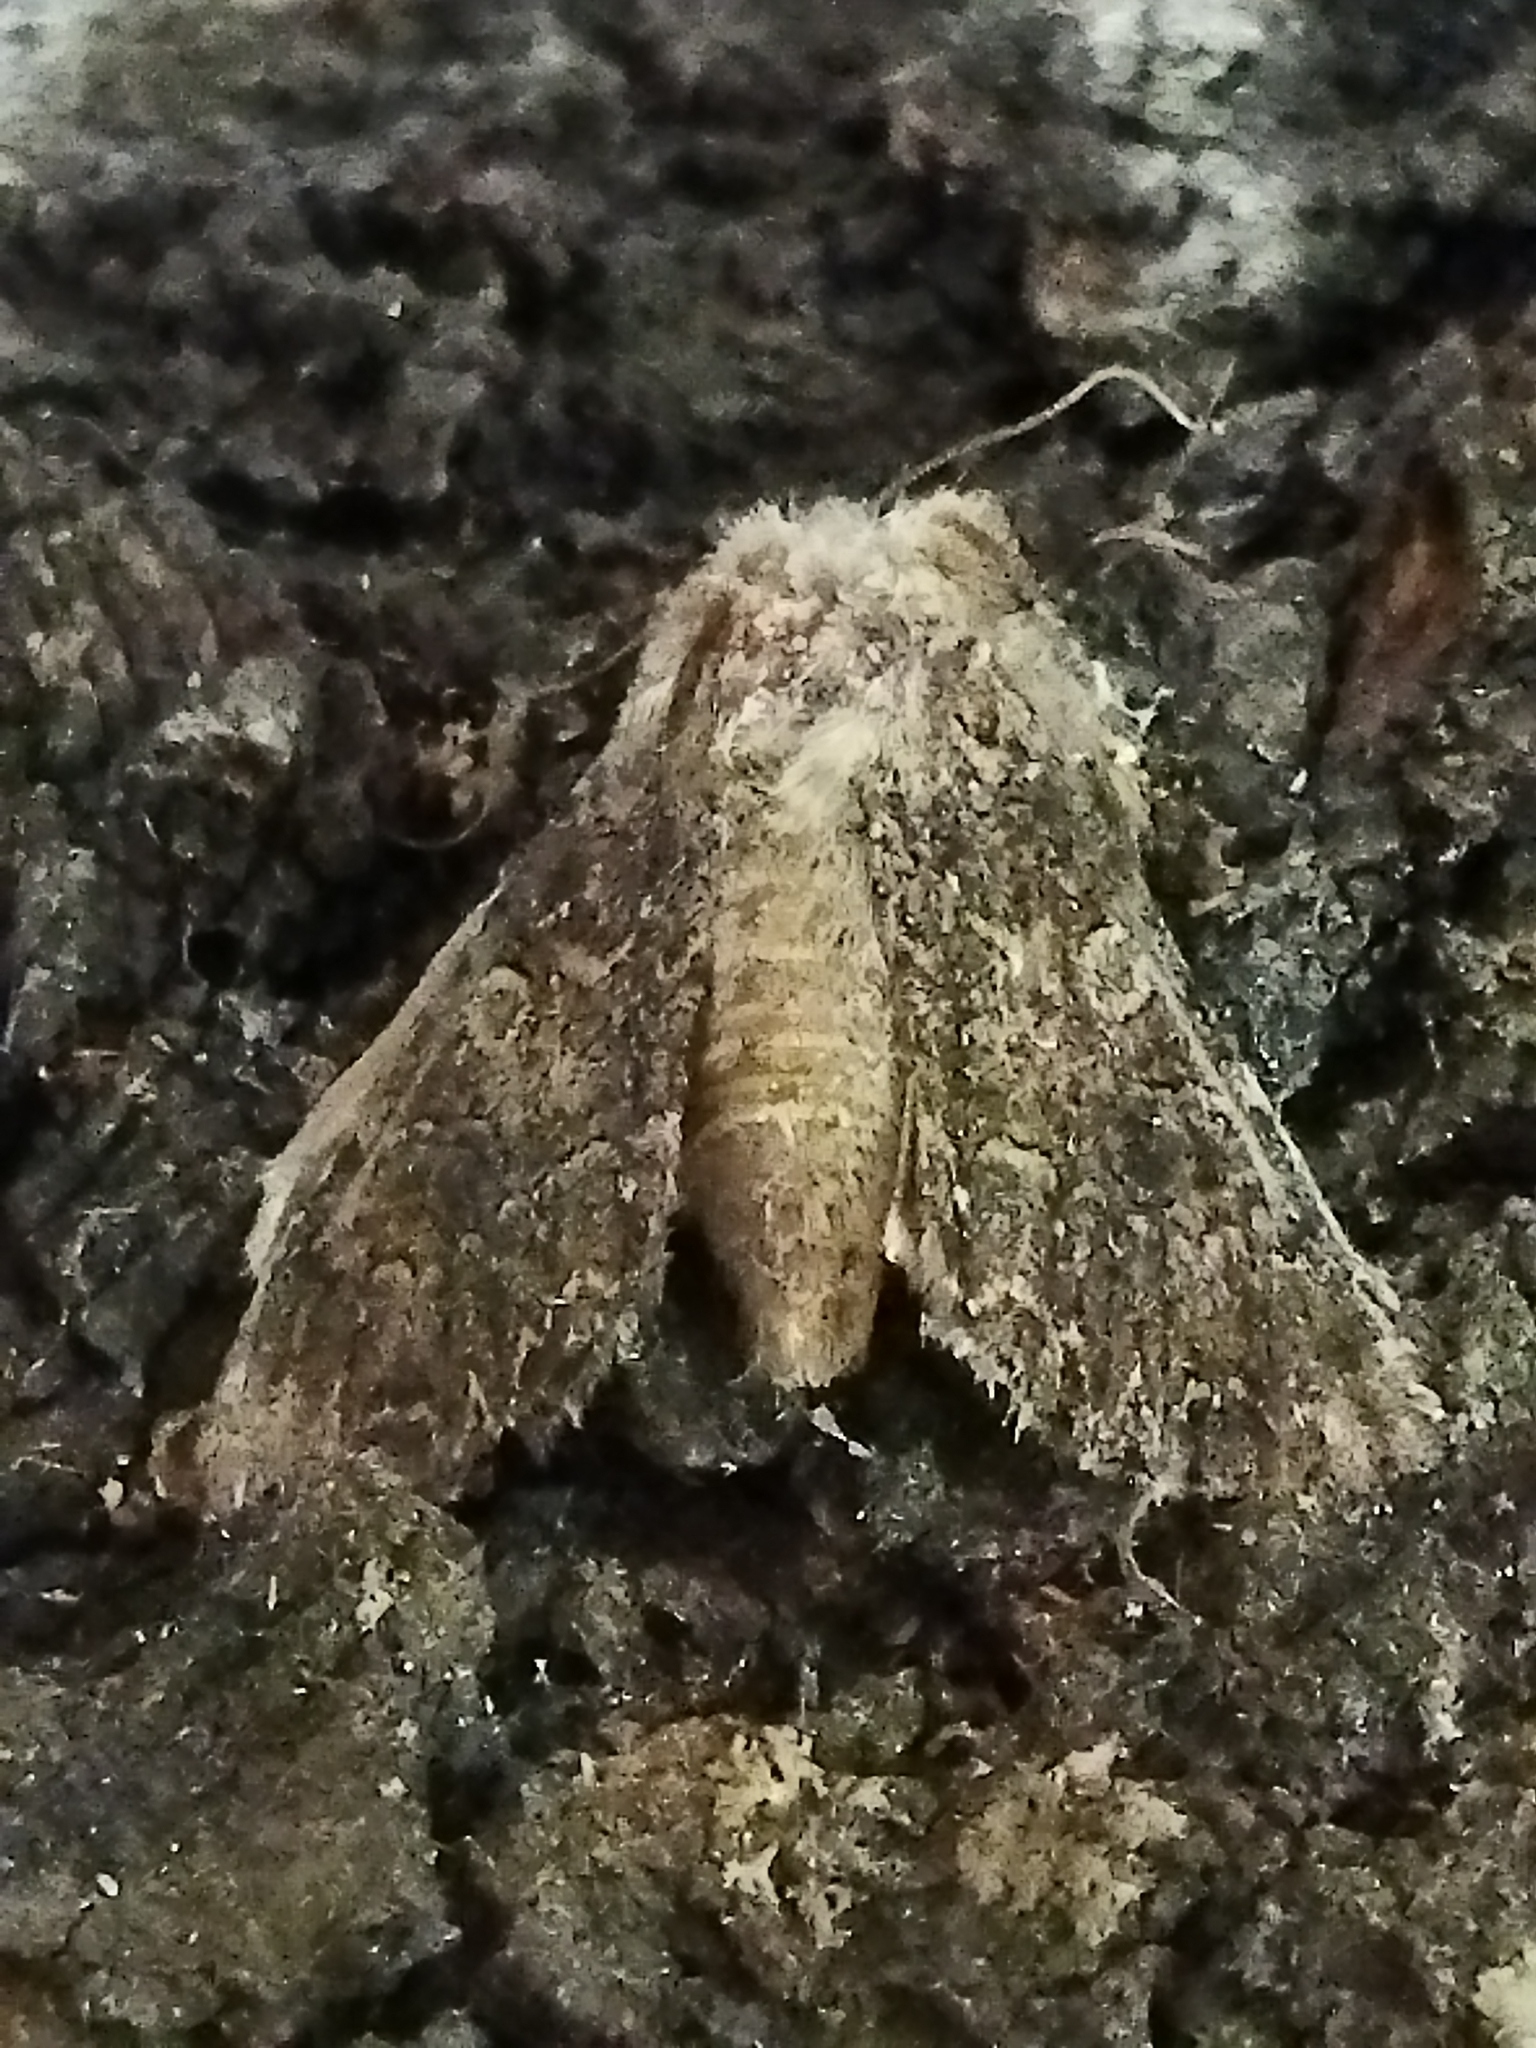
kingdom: Animalia
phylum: Arthropoda
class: Insecta
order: Lepidoptera
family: Noctuidae
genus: Anarta
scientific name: Anarta trifolii
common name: Clover cutworm moth
